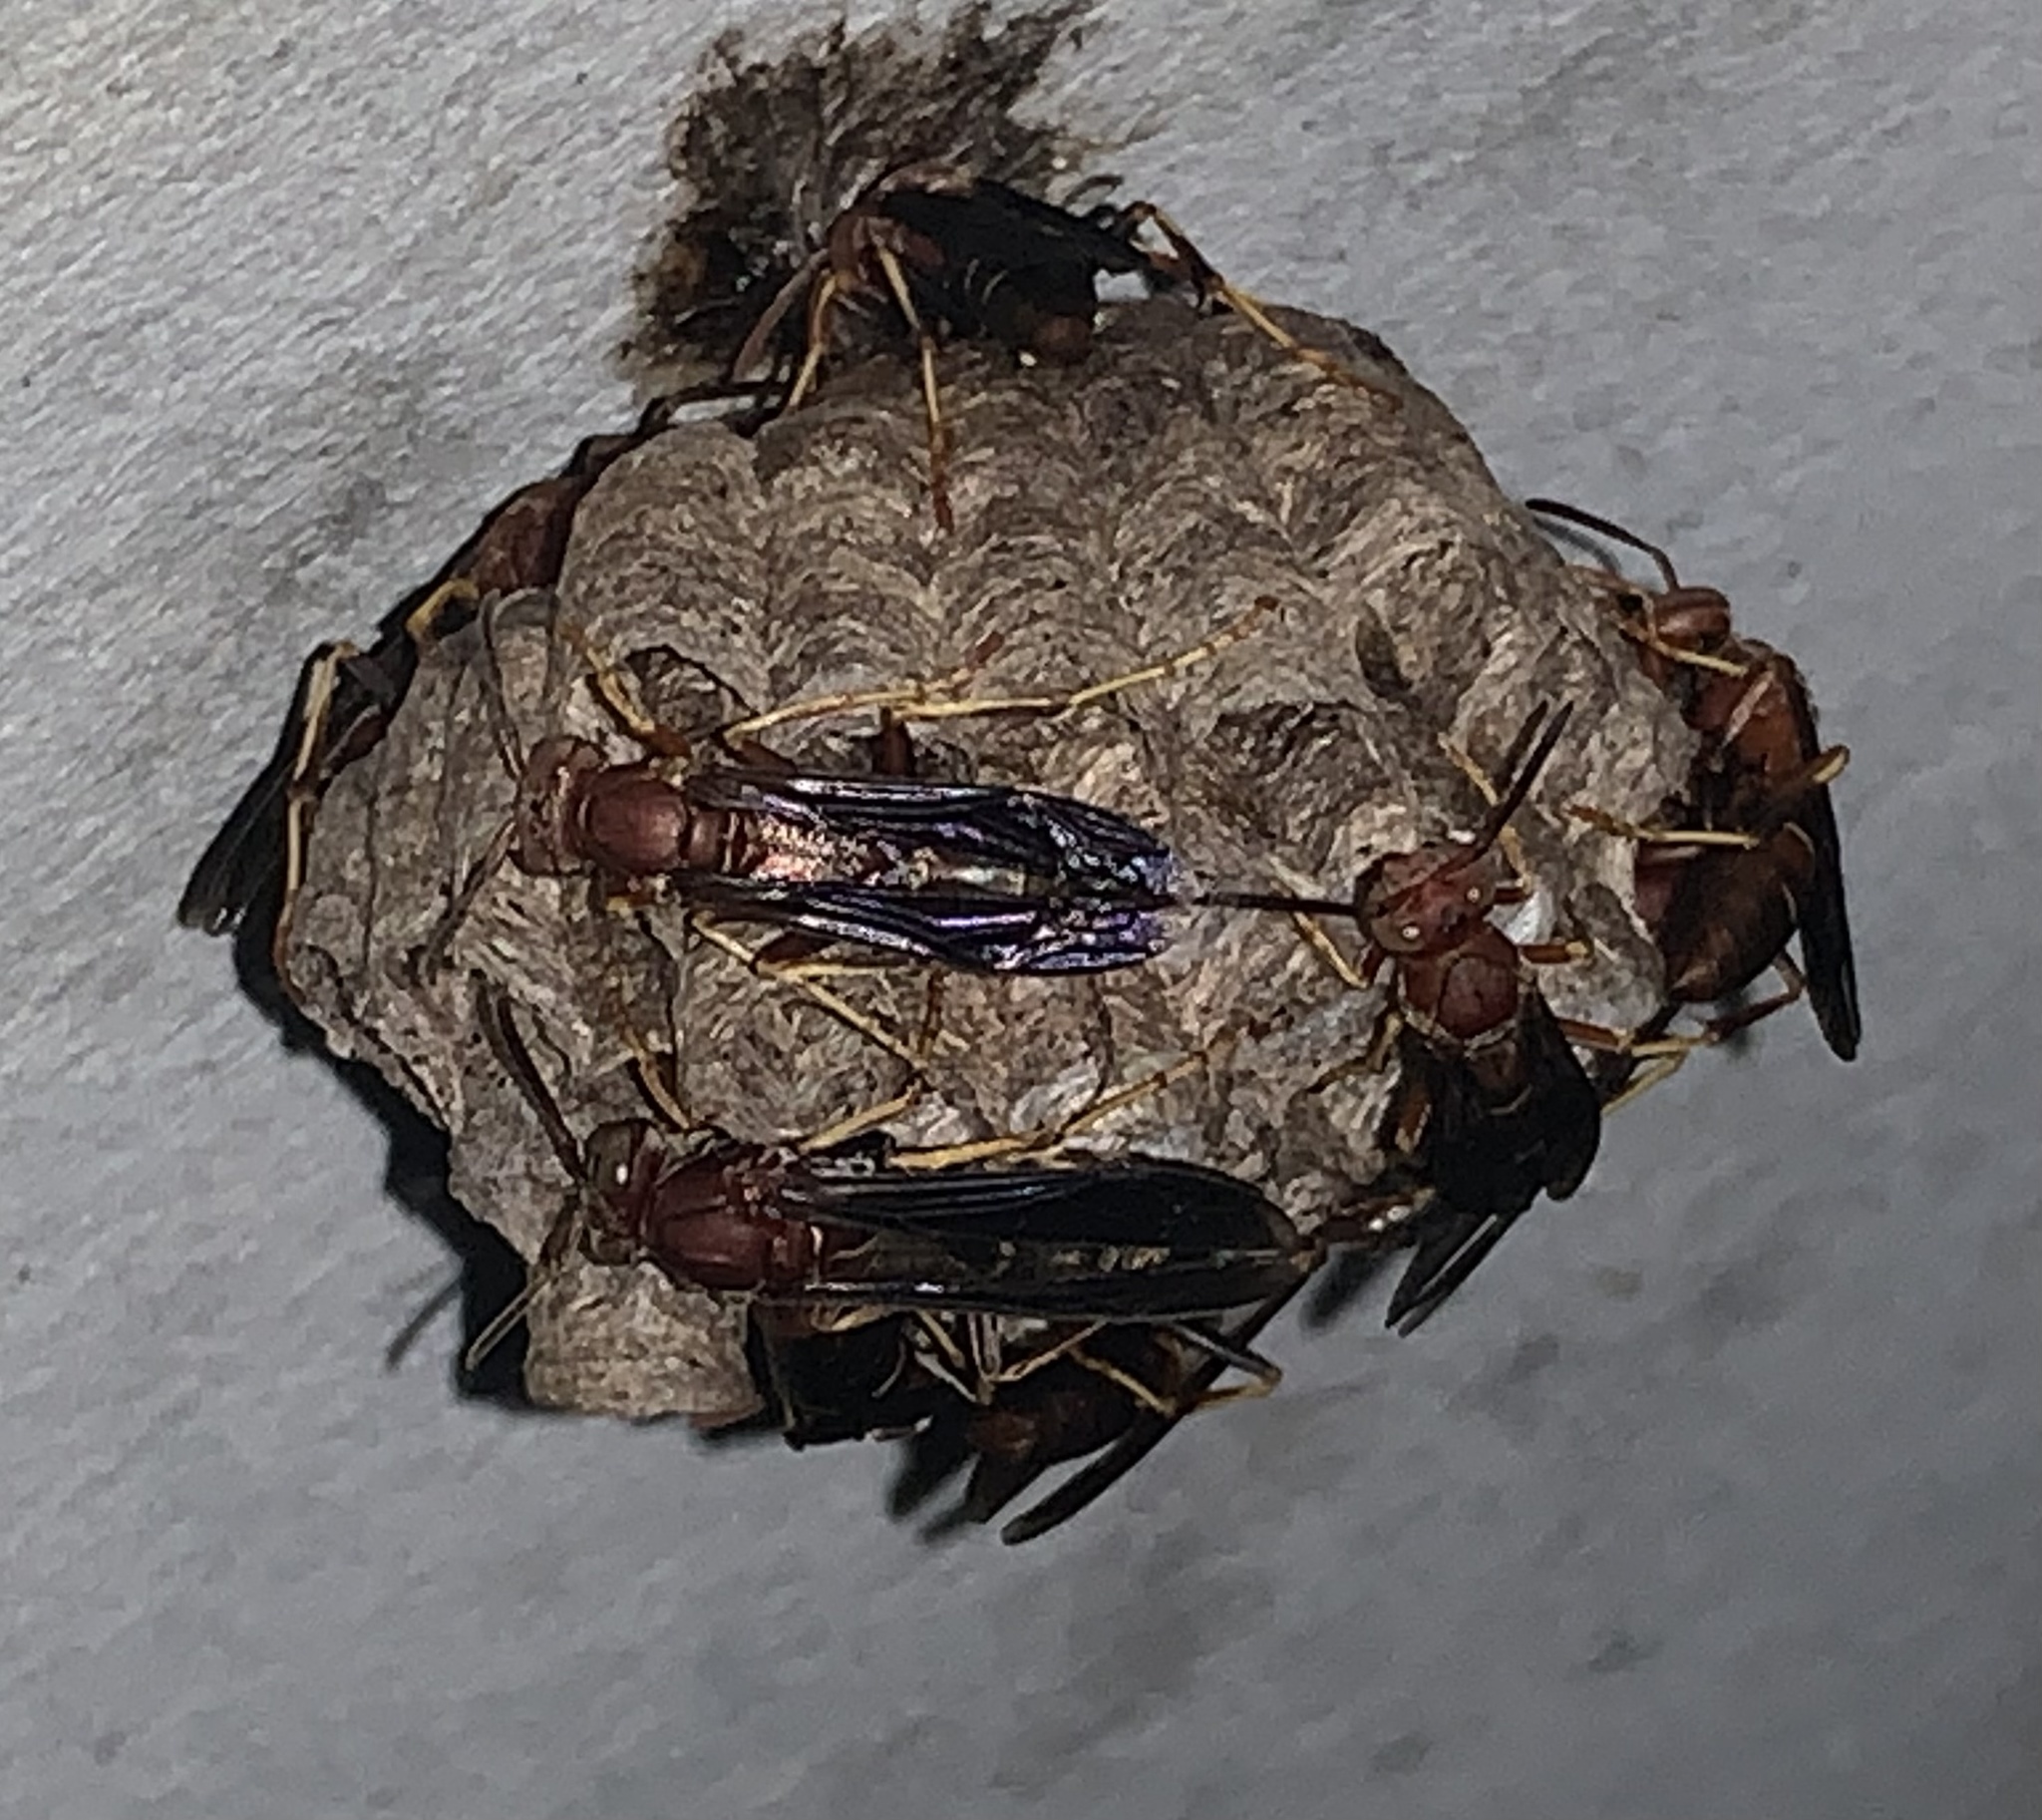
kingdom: Animalia
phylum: Arthropoda
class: Insecta
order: Hymenoptera
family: Eumenidae
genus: Polistes
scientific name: Polistes metricus
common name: Metric paper wasp
